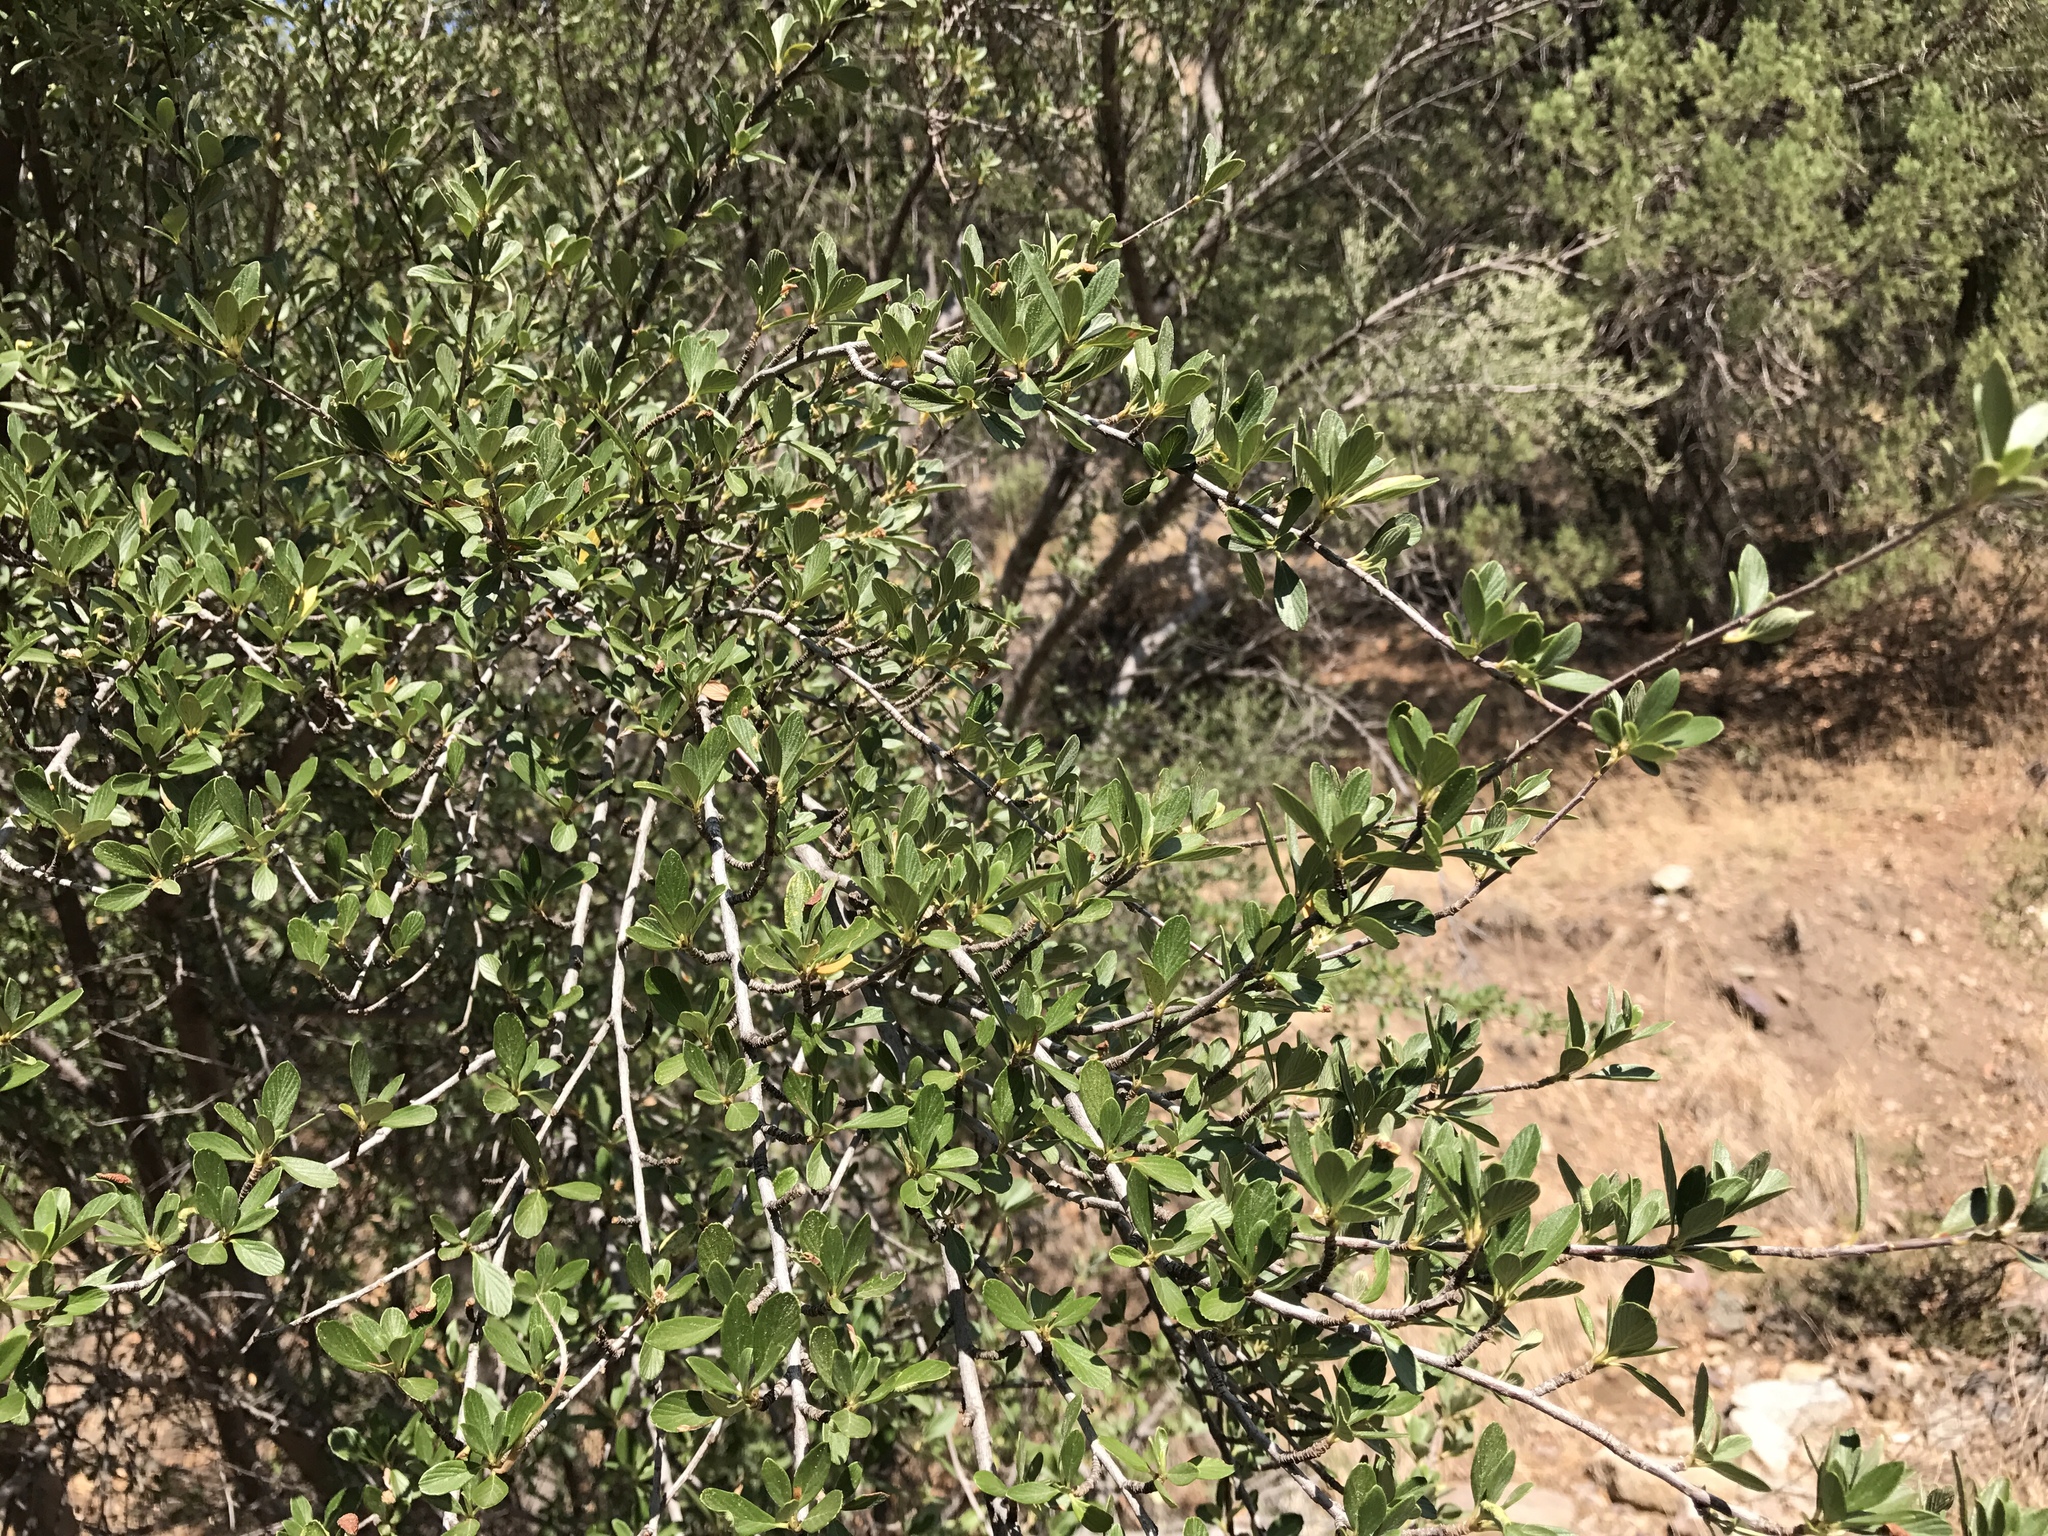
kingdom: Plantae
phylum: Tracheophyta
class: Magnoliopsida
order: Rosales
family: Rosaceae
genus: Cercocarpus
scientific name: Cercocarpus montanus
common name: Alder-leaf cercocarpus
